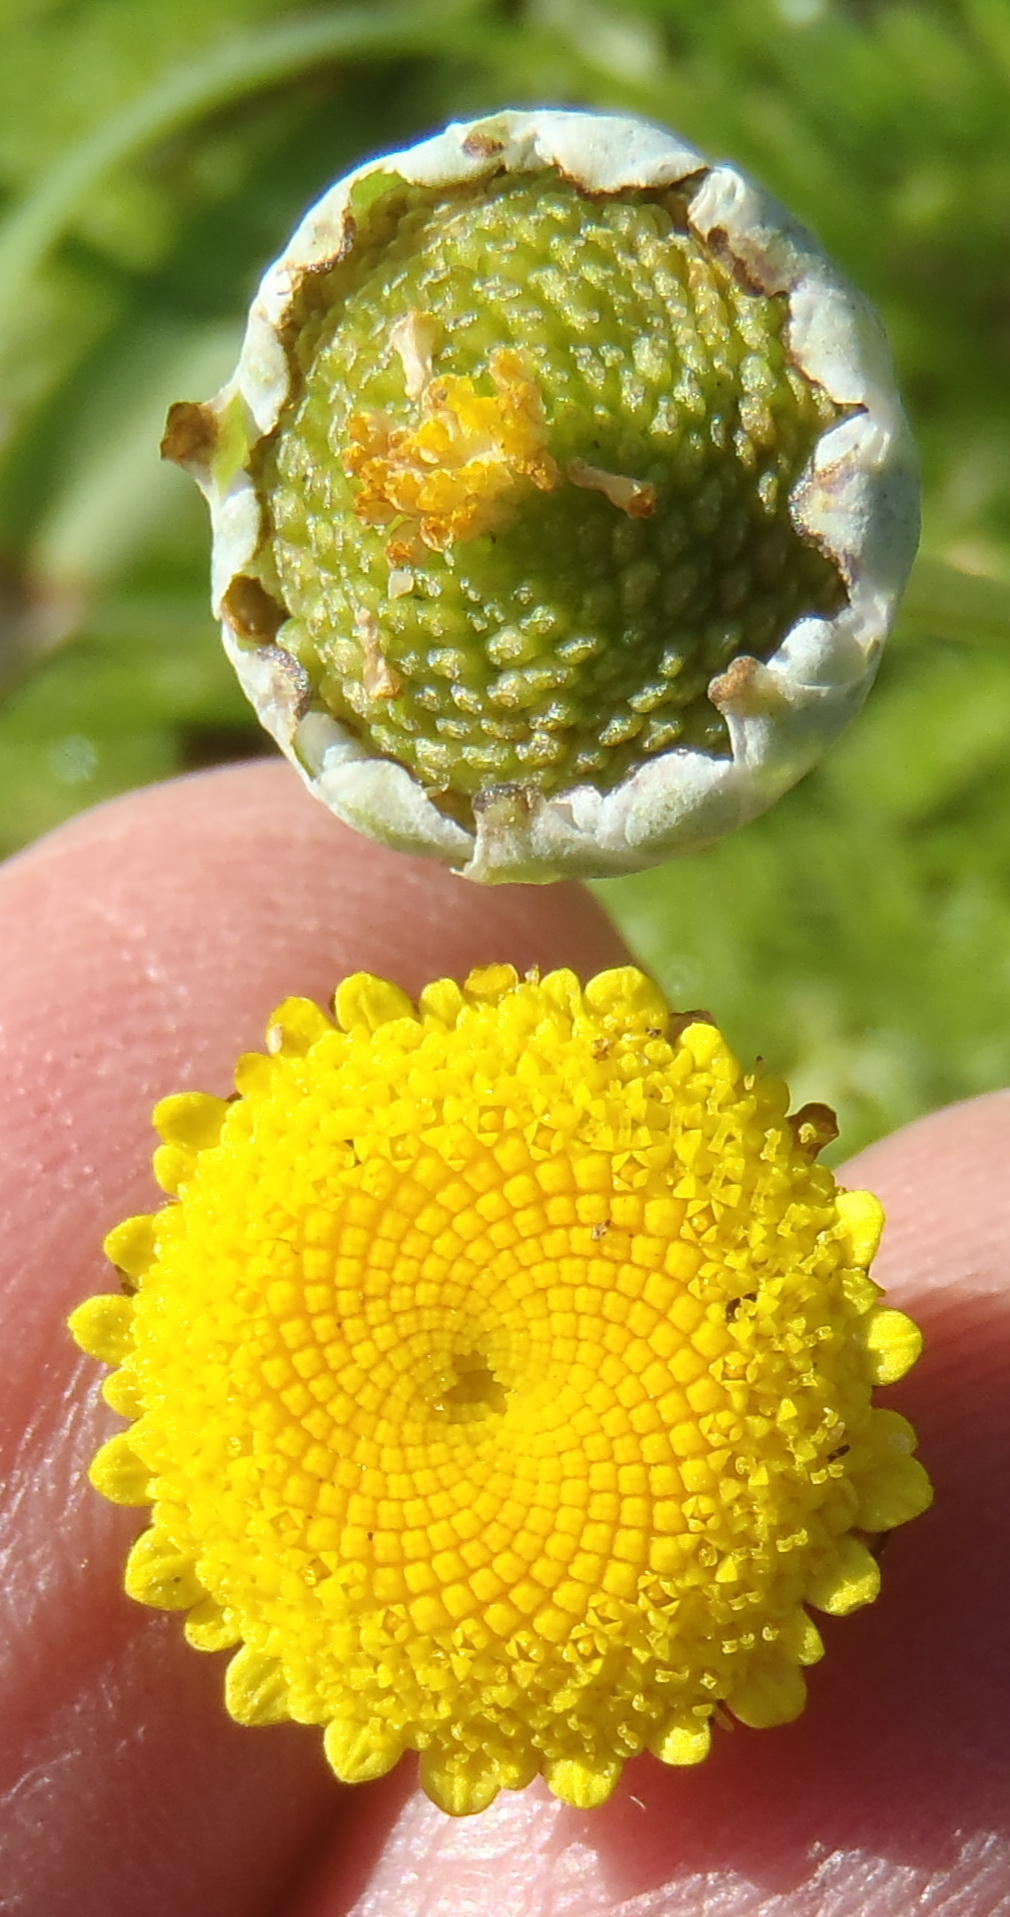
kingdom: Plantae
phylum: Tracheophyta
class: Magnoliopsida
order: Asterales
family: Asteraceae
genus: Cotula
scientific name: Cotula discolor
